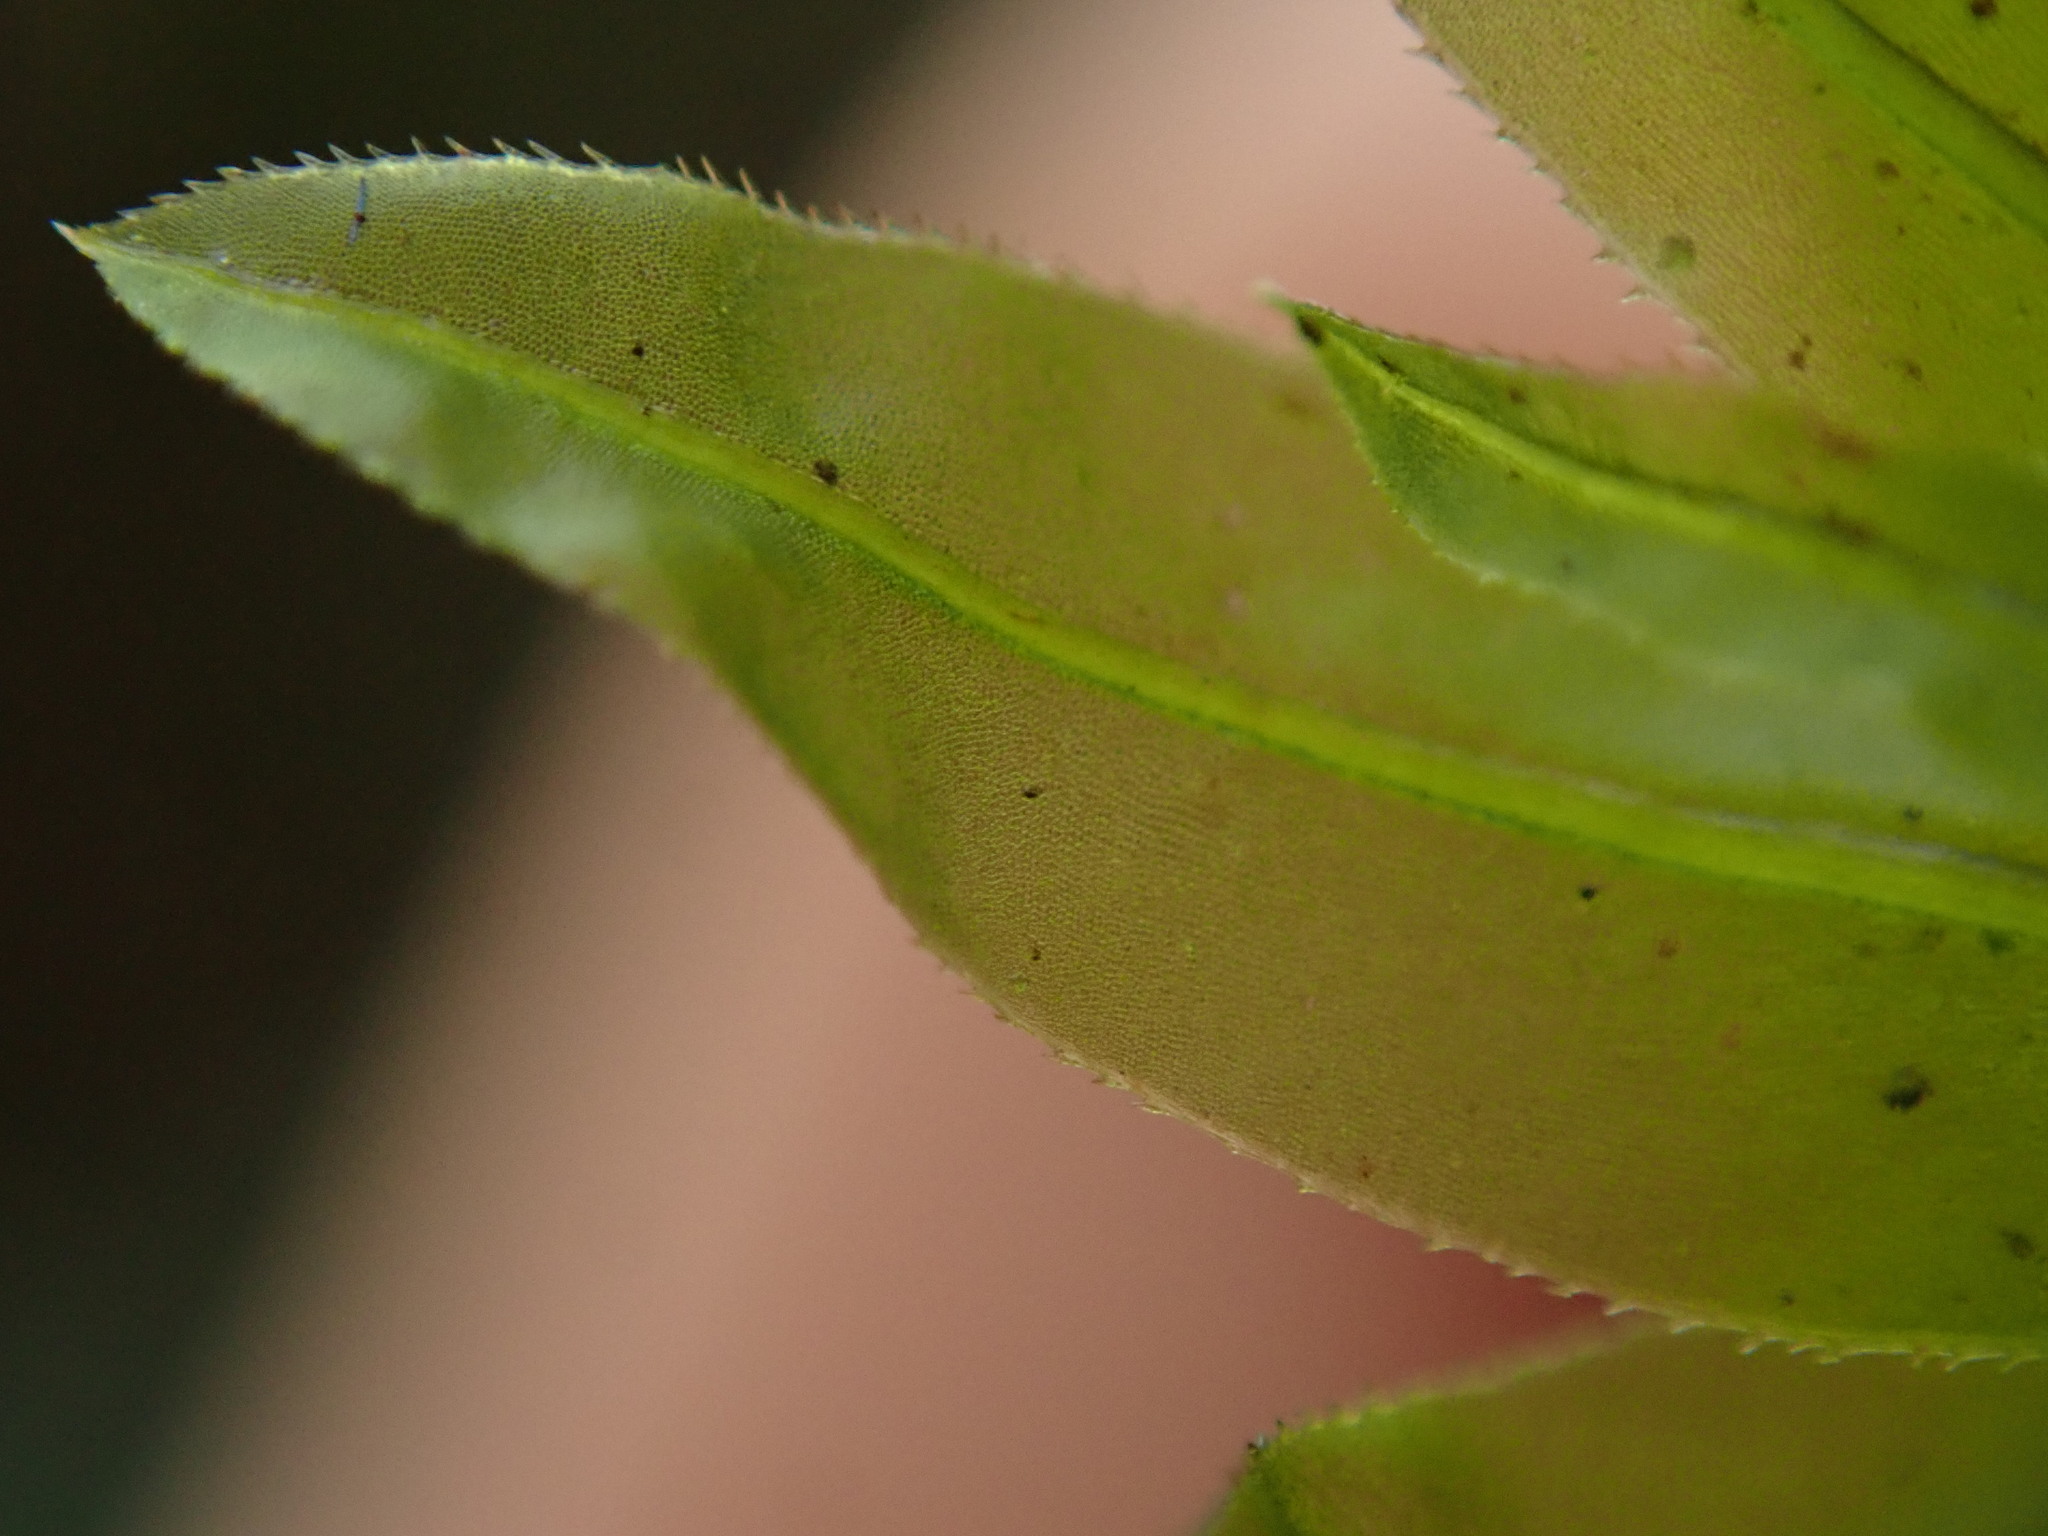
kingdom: Plantae
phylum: Bryophyta
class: Bryopsida
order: Bryales
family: Mniaceae
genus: Plagiomnium
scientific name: Plagiomnium insigne
